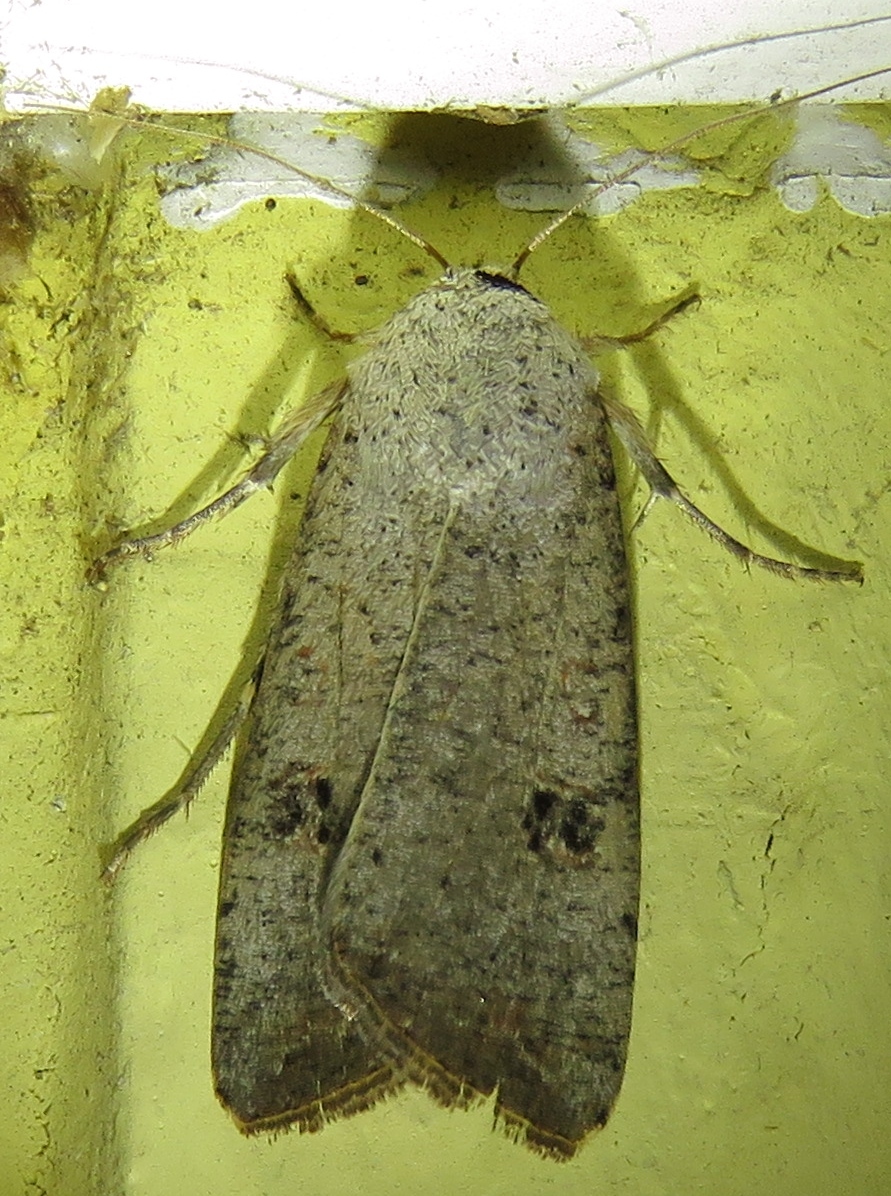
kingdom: Animalia
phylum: Arthropoda
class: Insecta
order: Lepidoptera
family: Noctuidae
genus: Anicla
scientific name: Anicla infecta
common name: Green cutworm
